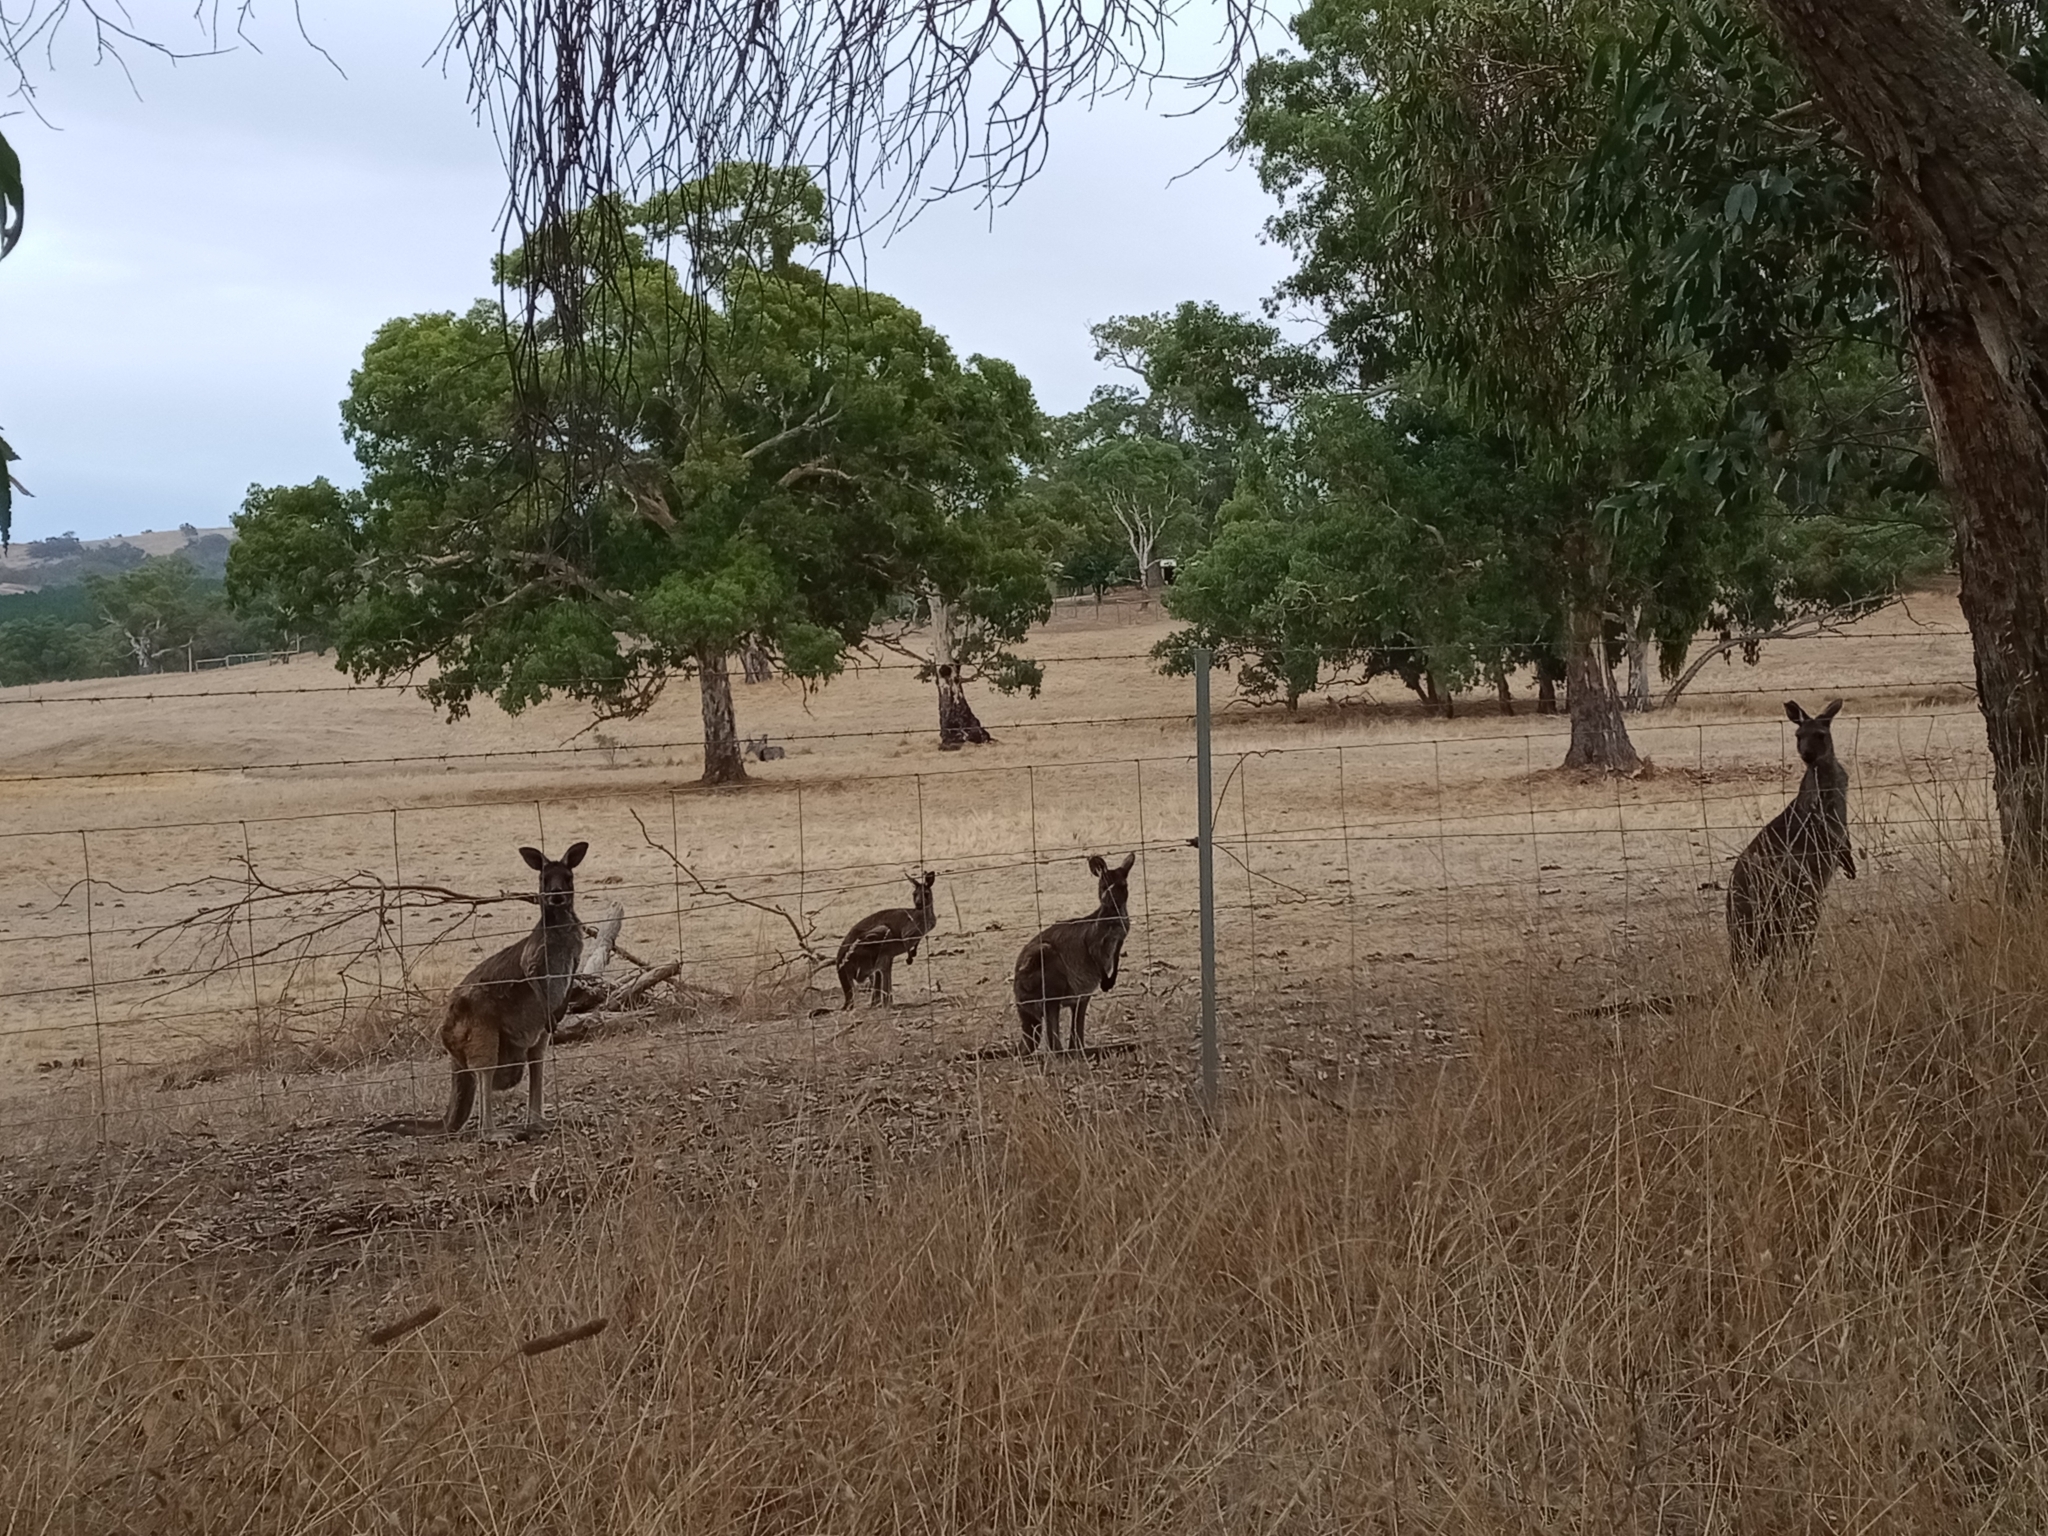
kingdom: Animalia
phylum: Chordata
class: Mammalia
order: Diprotodontia
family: Macropodidae
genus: Macropus
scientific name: Macropus fuliginosus
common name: Western grey kangaroo
